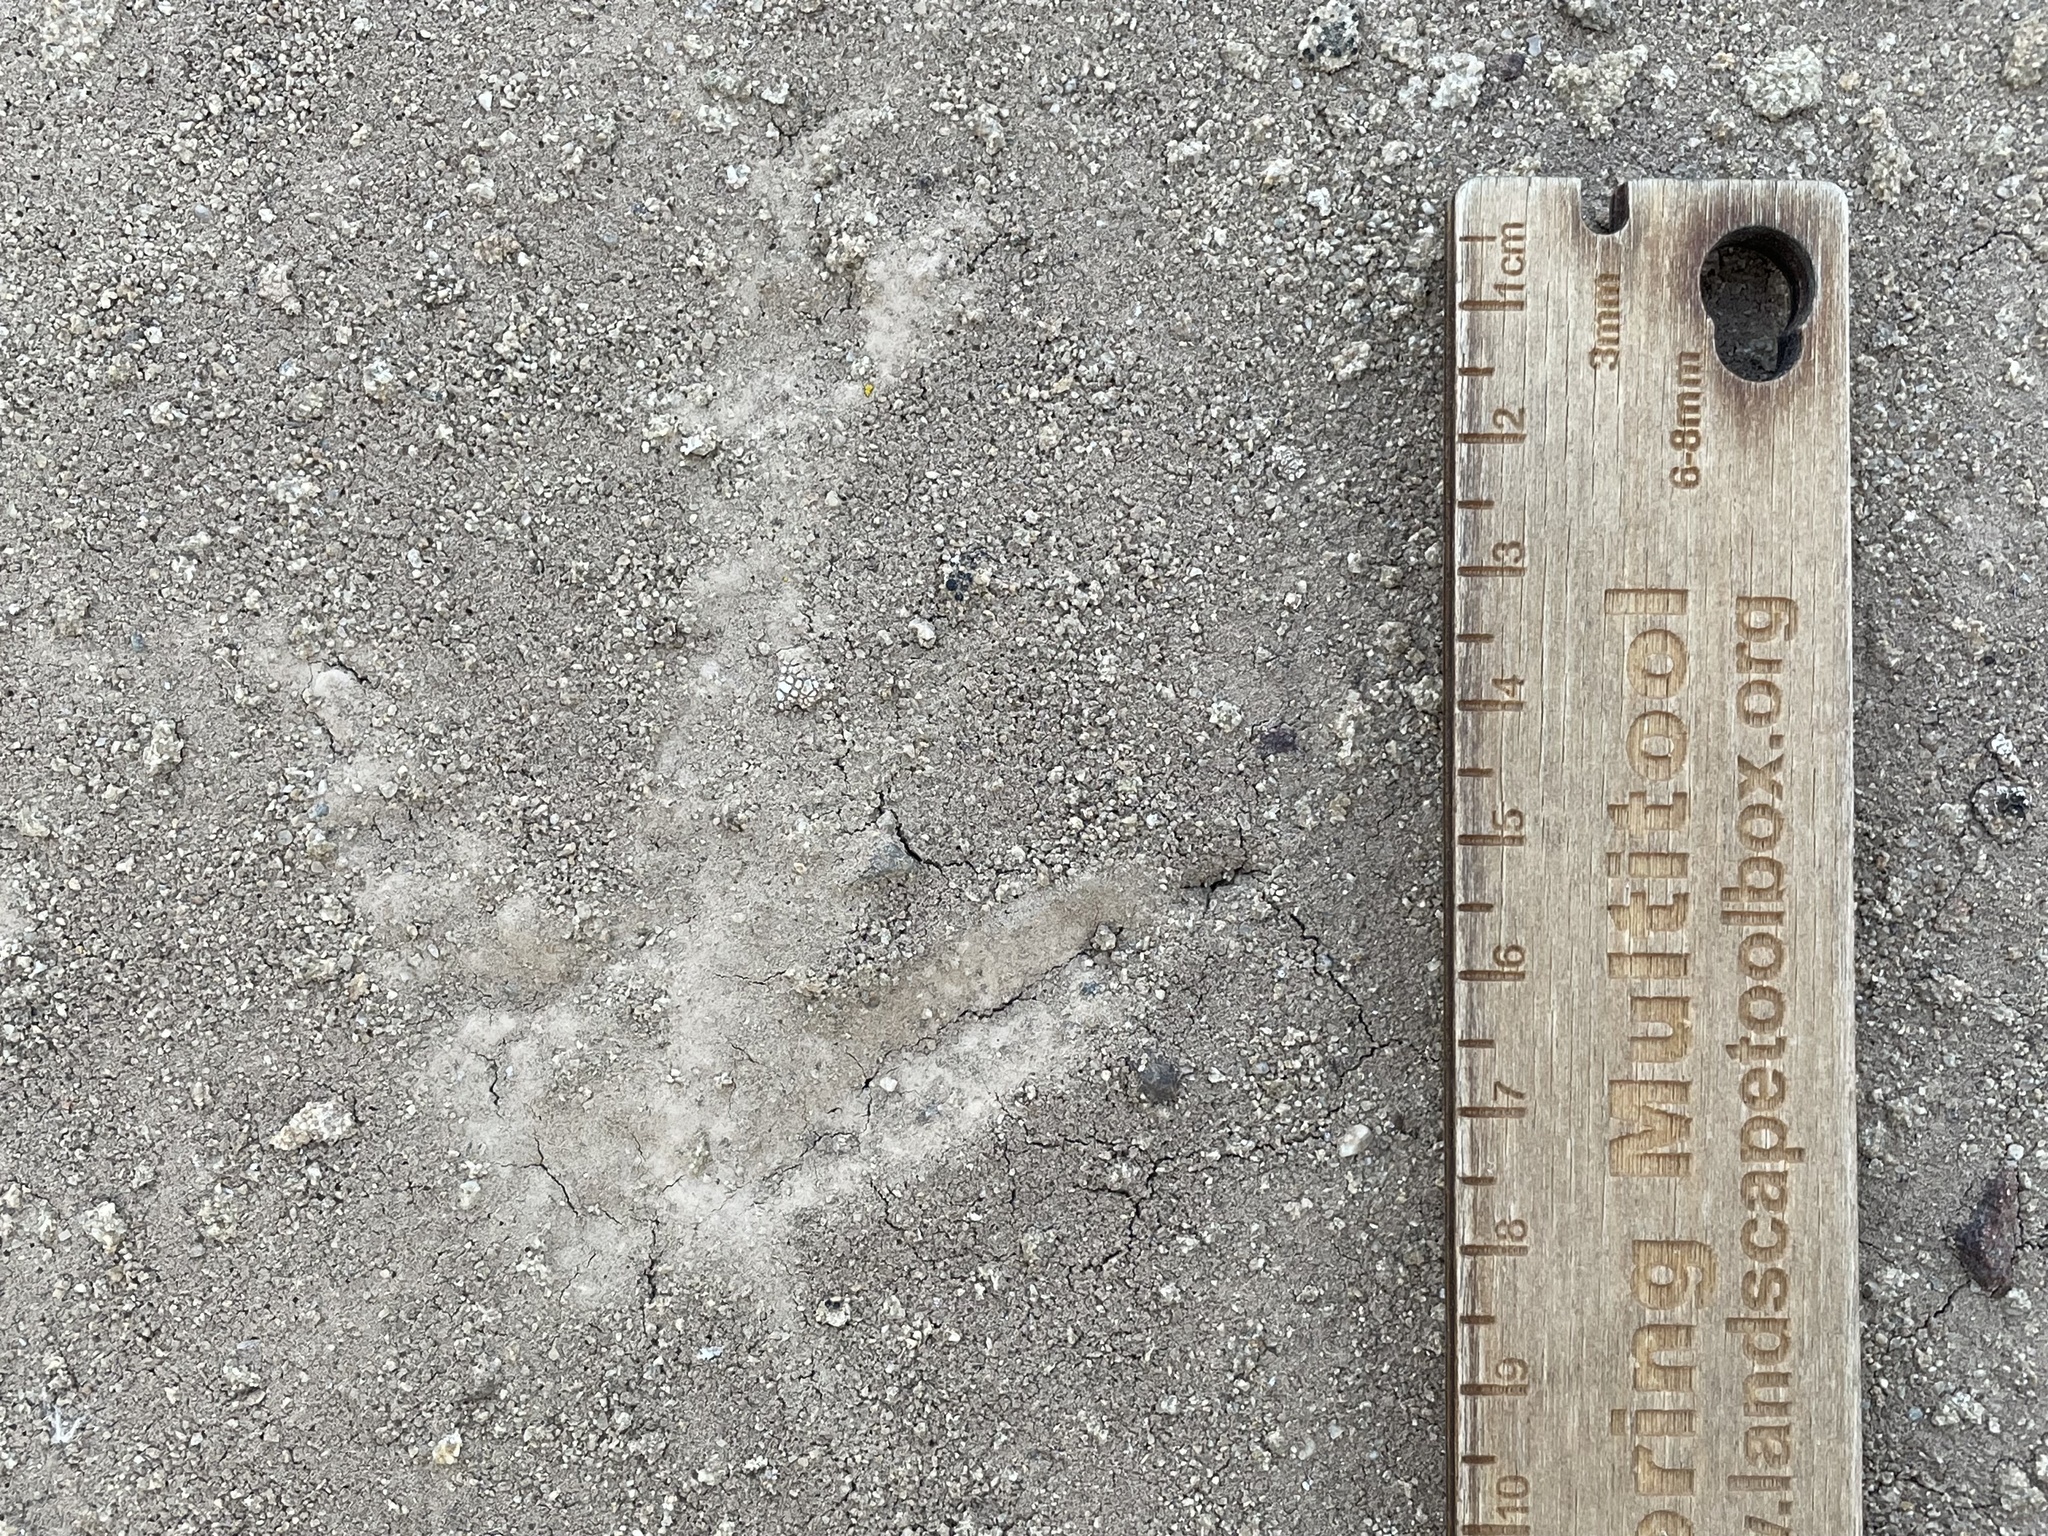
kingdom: Animalia
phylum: Chordata
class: Aves
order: Galliformes
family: Phasianidae
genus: Meleagris
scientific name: Meleagris gallopavo
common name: Wild turkey
